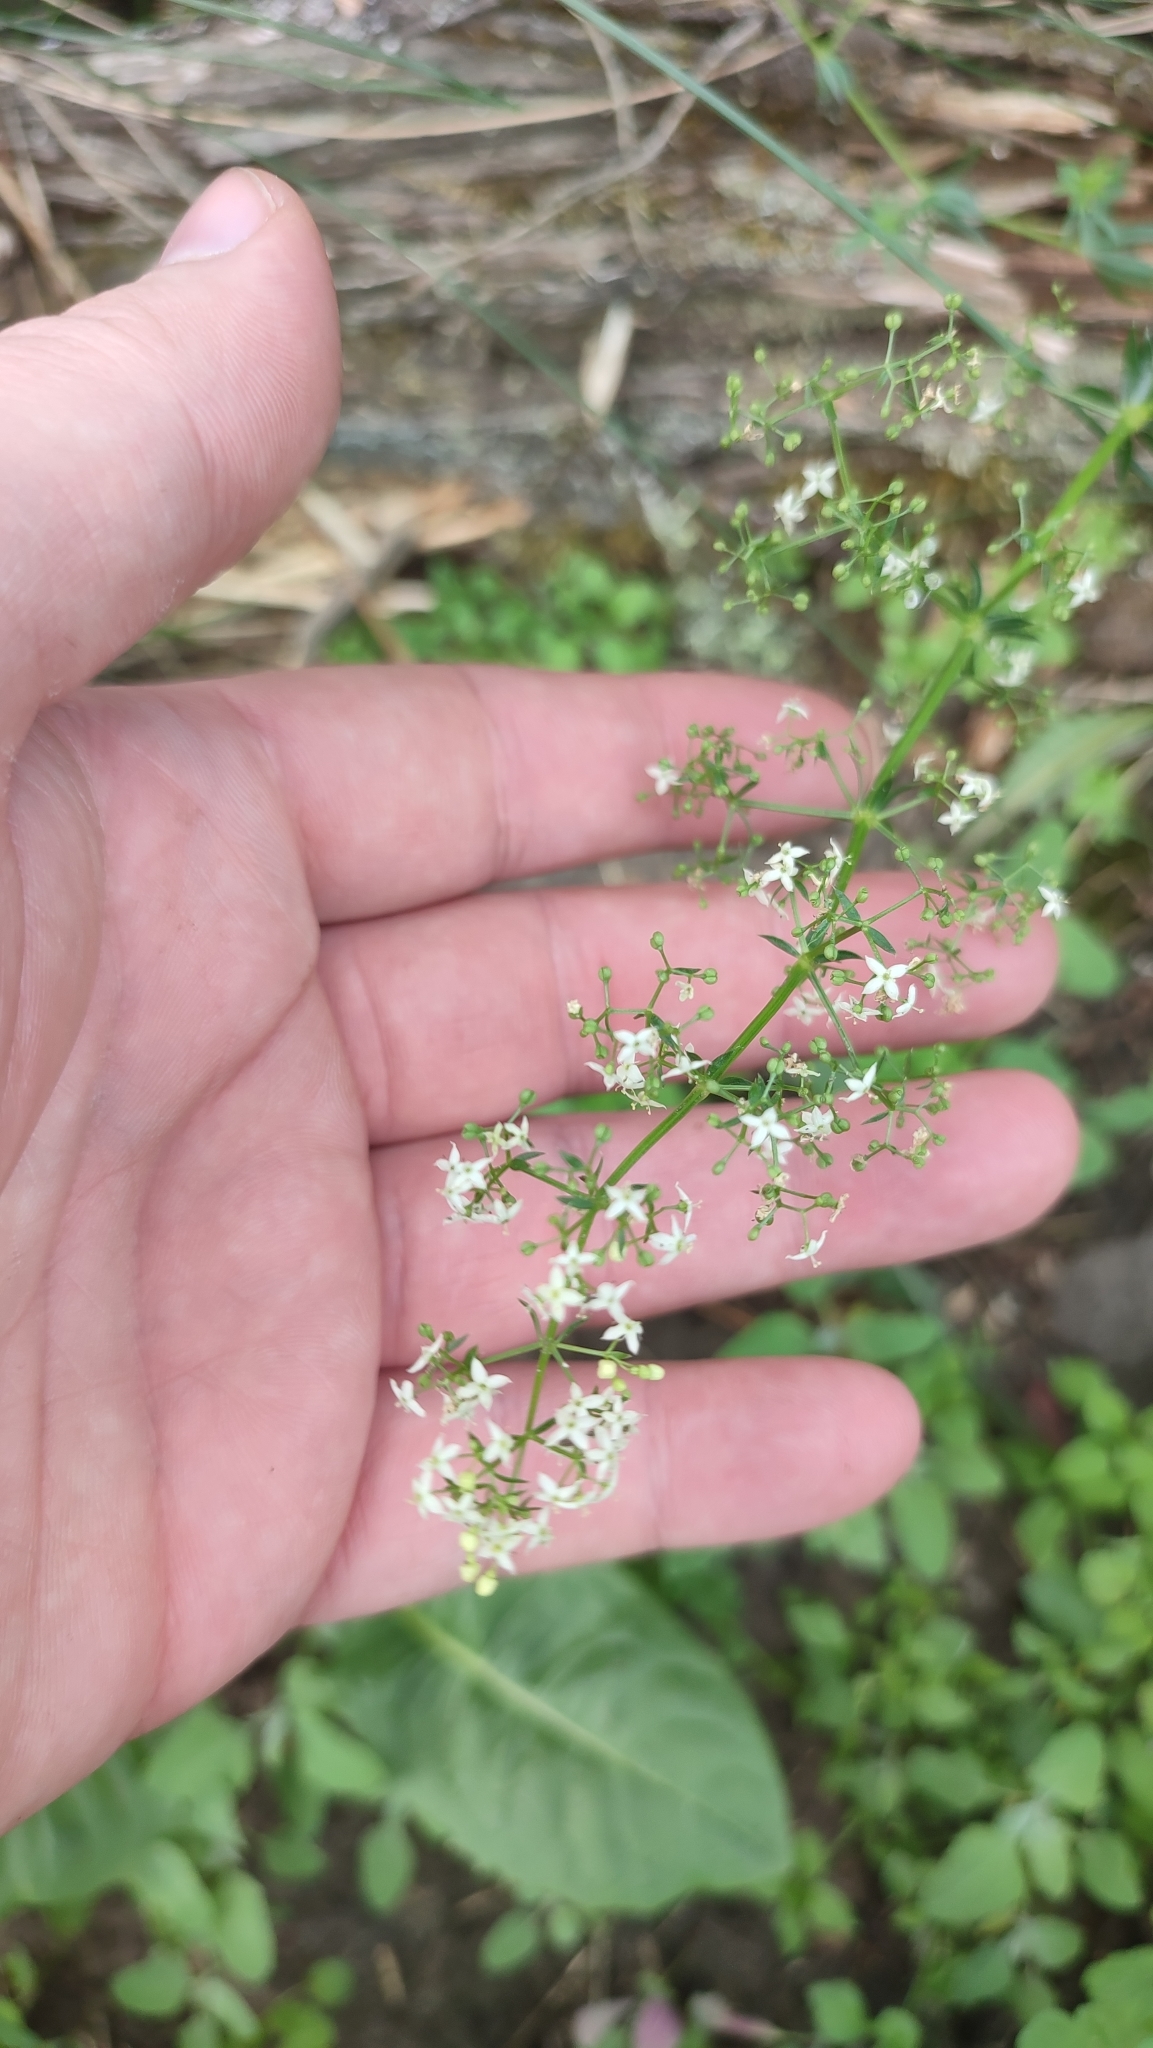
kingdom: Plantae
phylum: Tracheophyta
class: Magnoliopsida
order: Gentianales
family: Rubiaceae
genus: Galium
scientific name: Galium mollugo
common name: Hedge bedstraw
